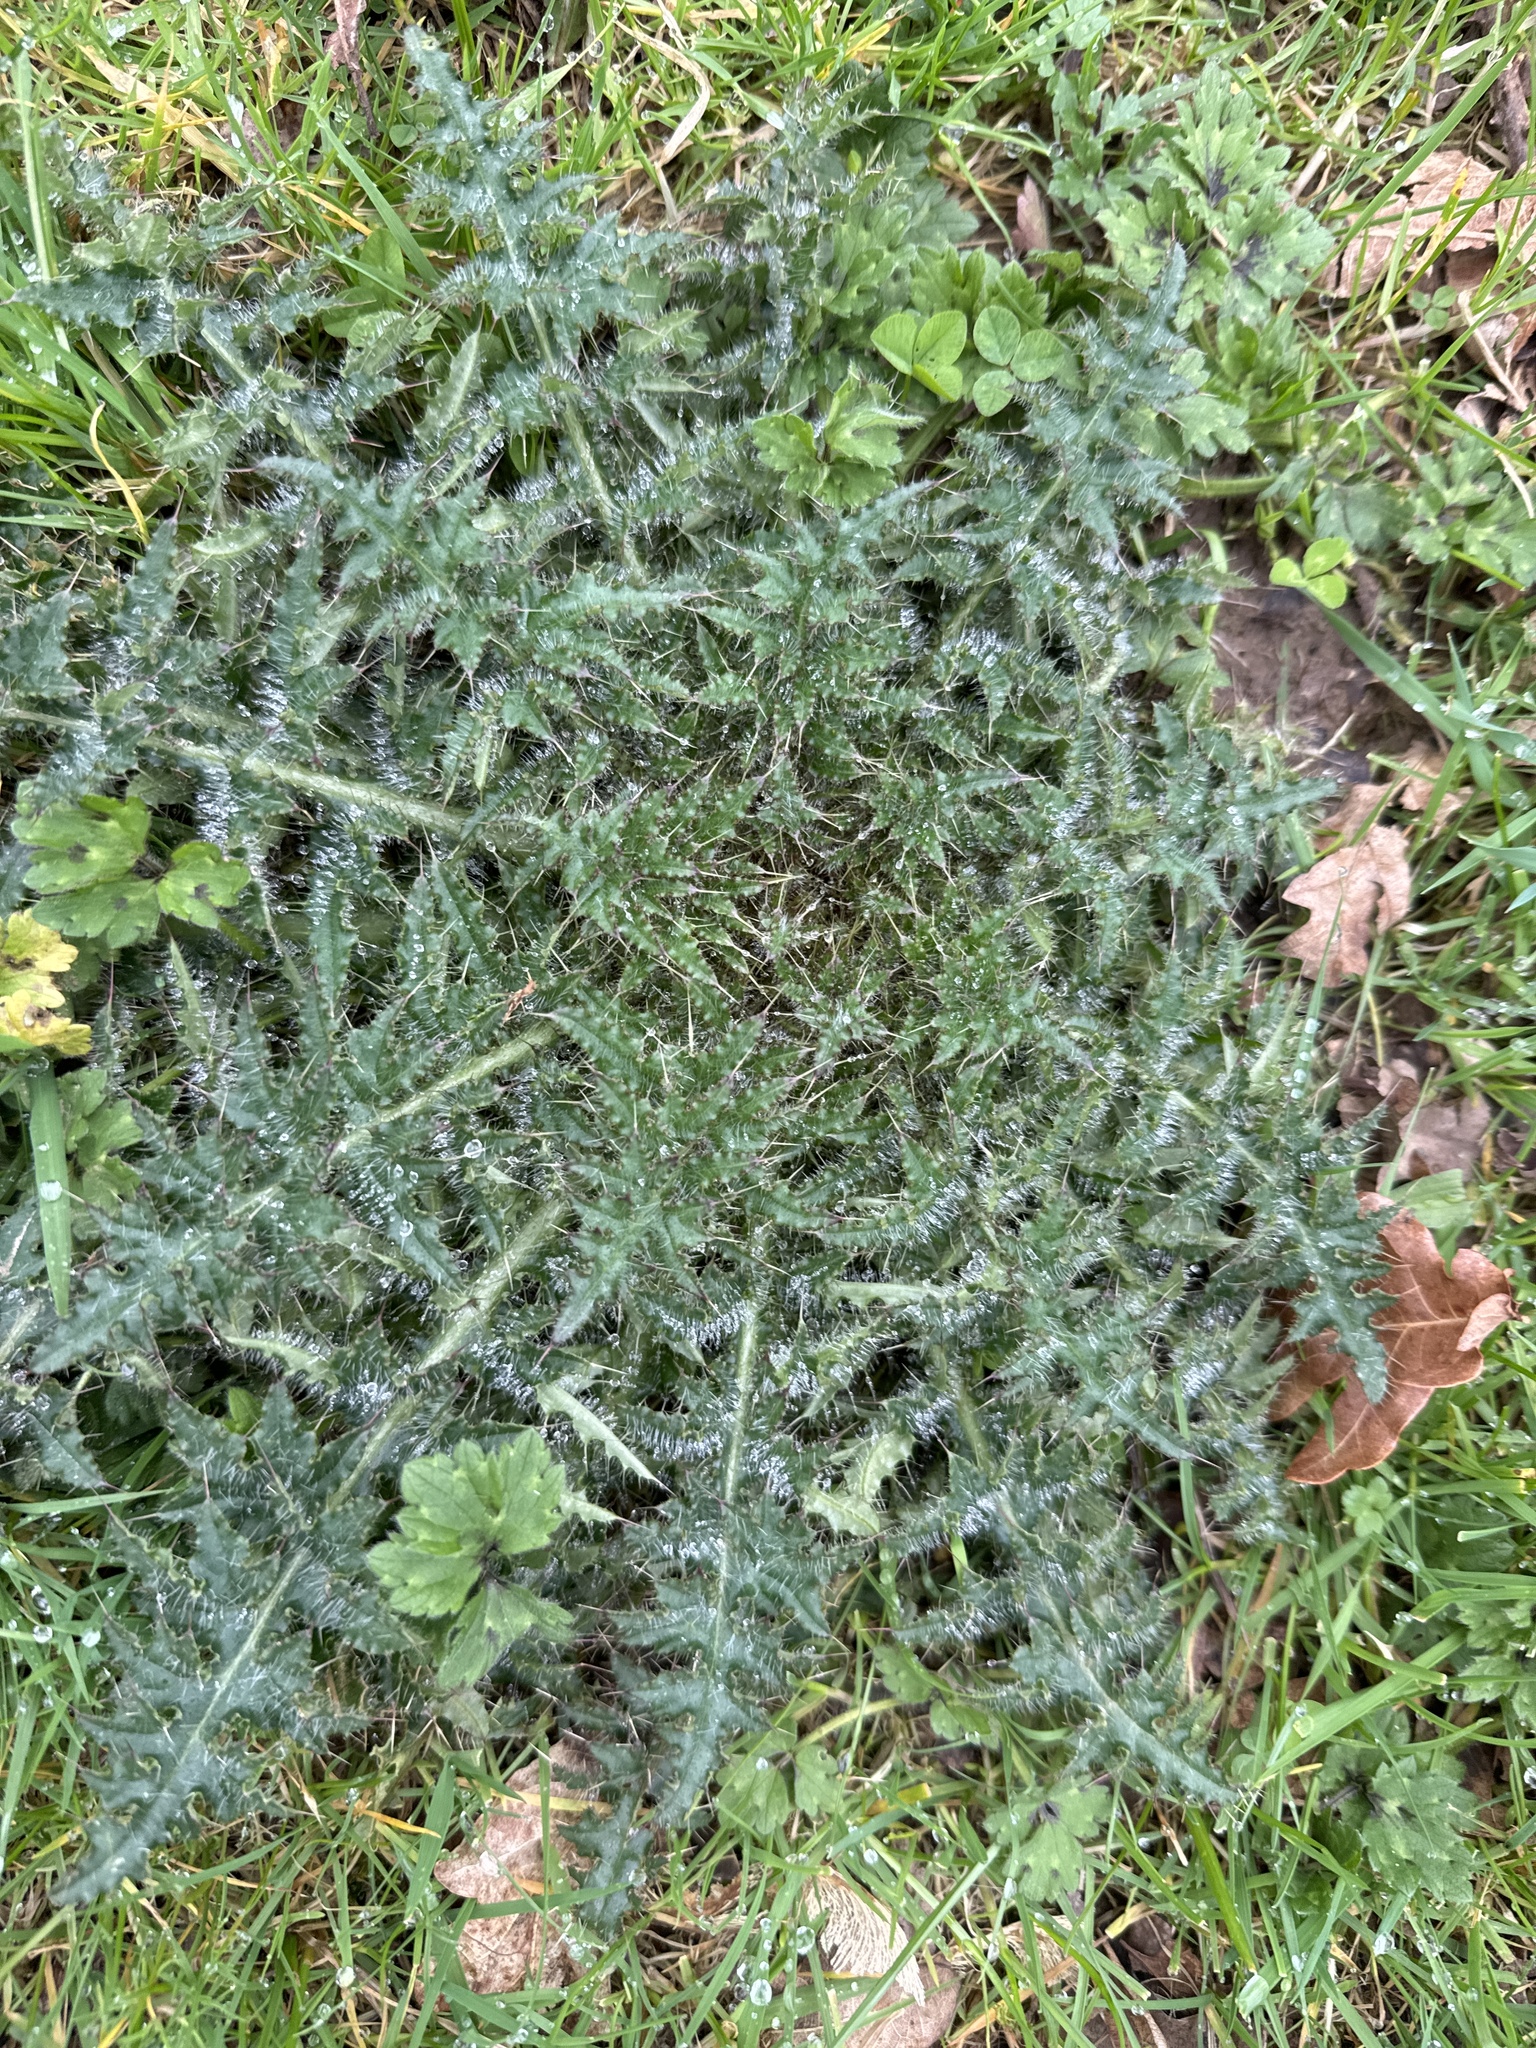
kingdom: Plantae
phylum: Tracheophyta
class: Magnoliopsida
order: Asterales
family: Asteraceae
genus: Cirsium
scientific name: Cirsium vulgare
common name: Bull thistle
